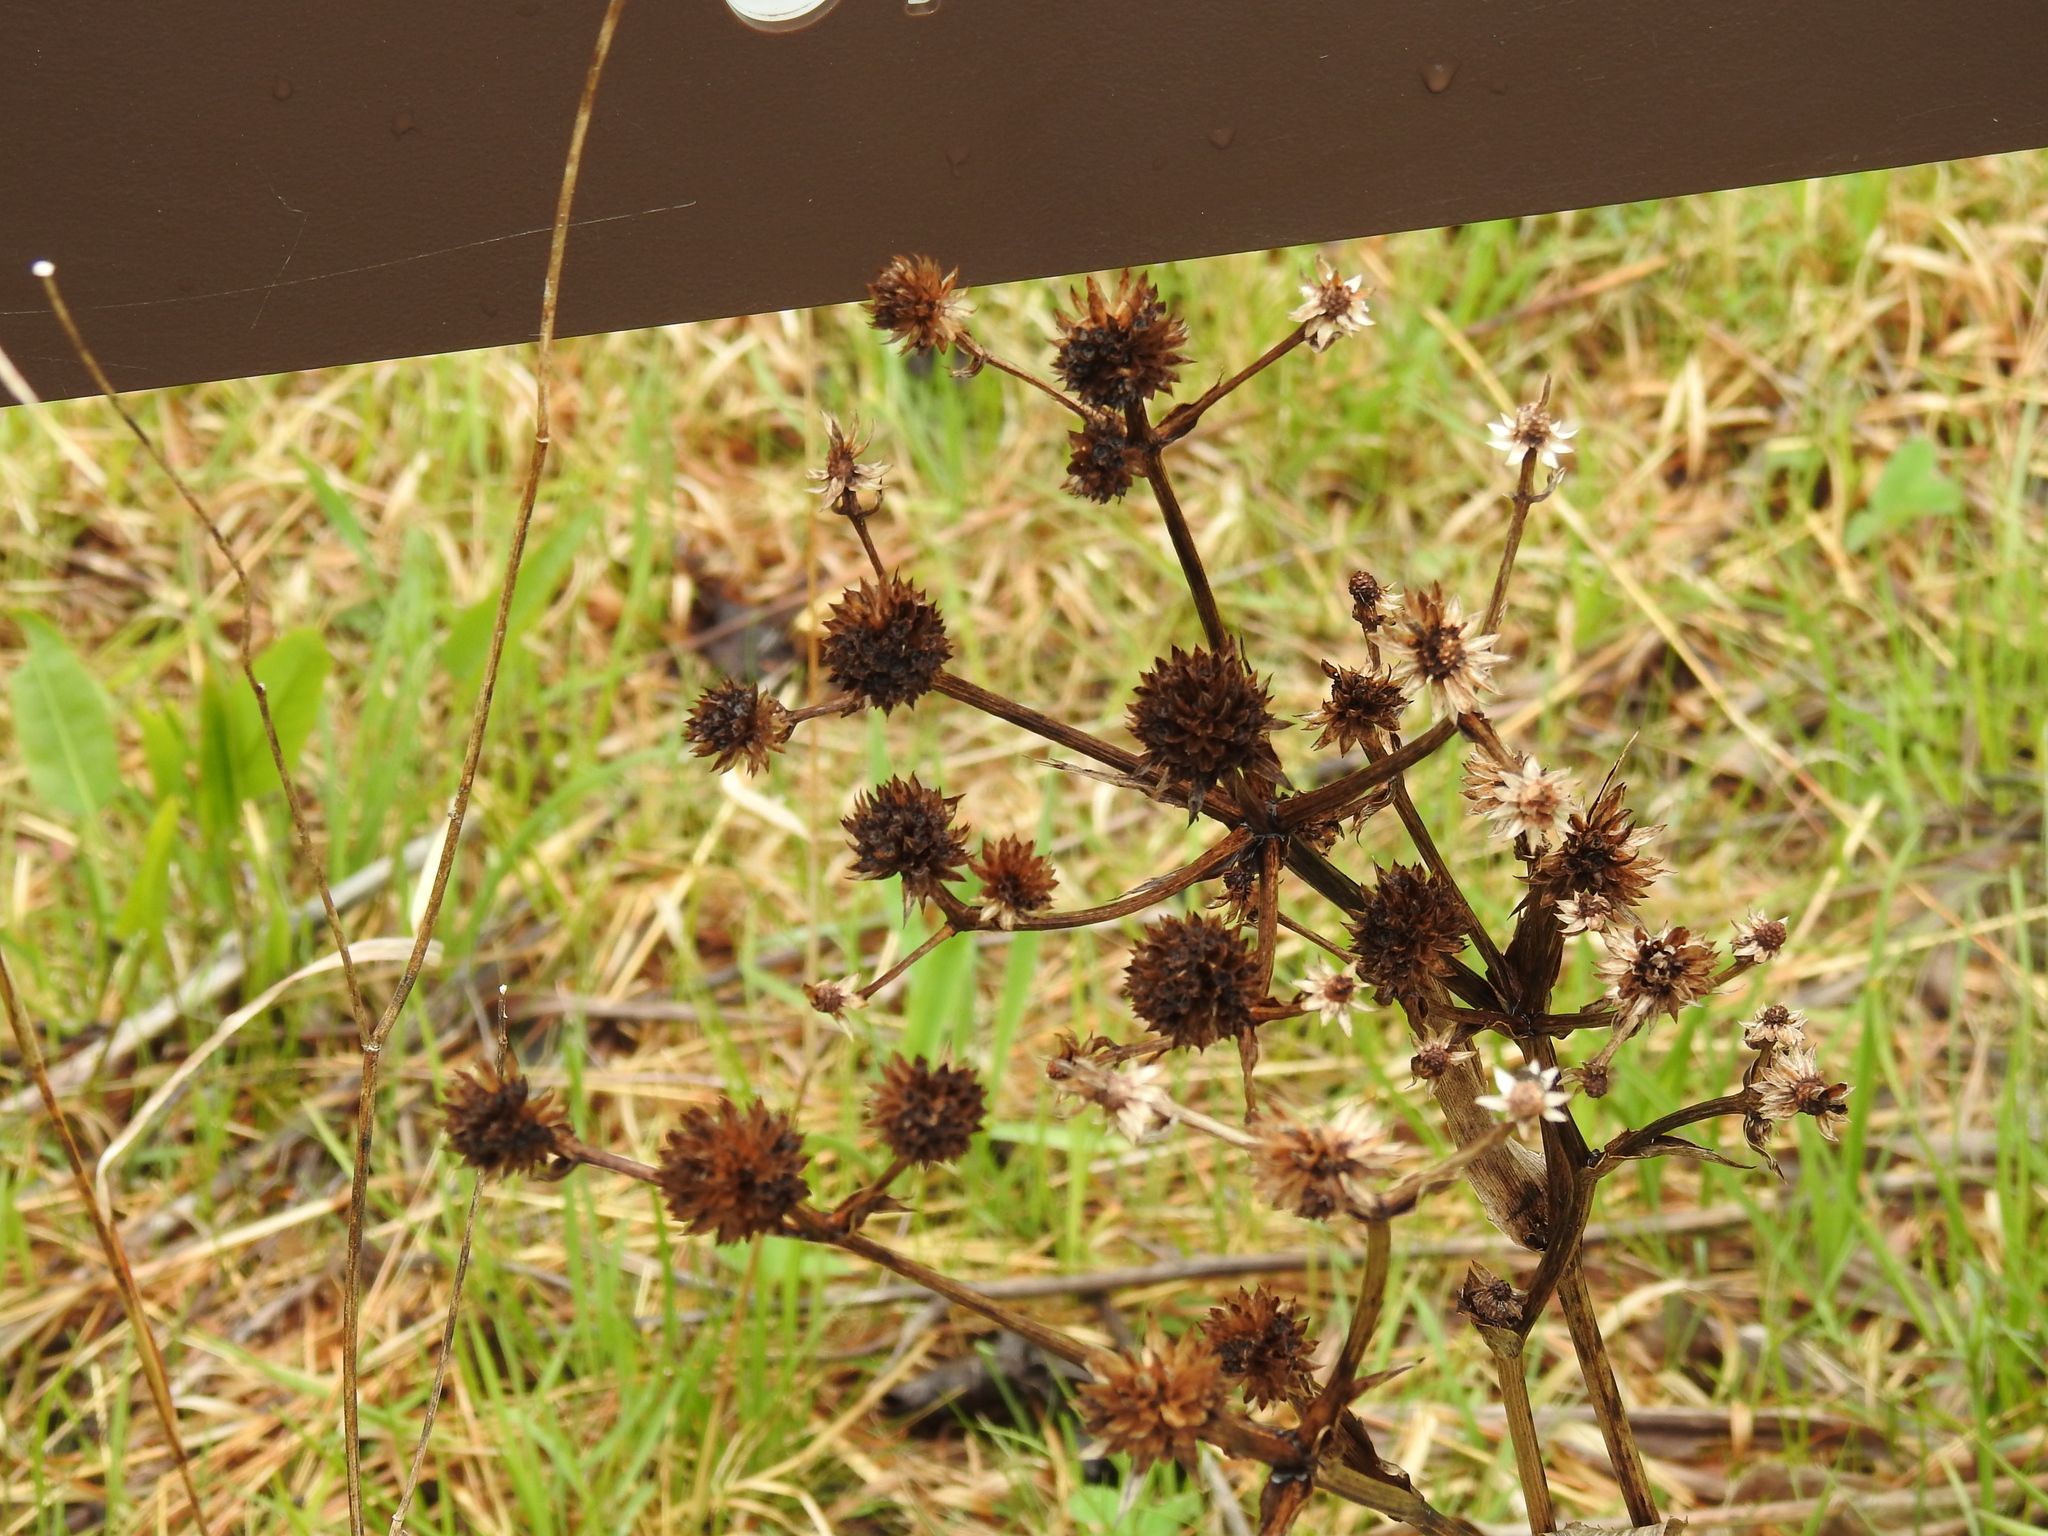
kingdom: Plantae
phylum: Tracheophyta
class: Magnoliopsida
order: Apiales
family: Apiaceae
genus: Eryngium
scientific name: Eryngium yuccifolium
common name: Button eryngo
